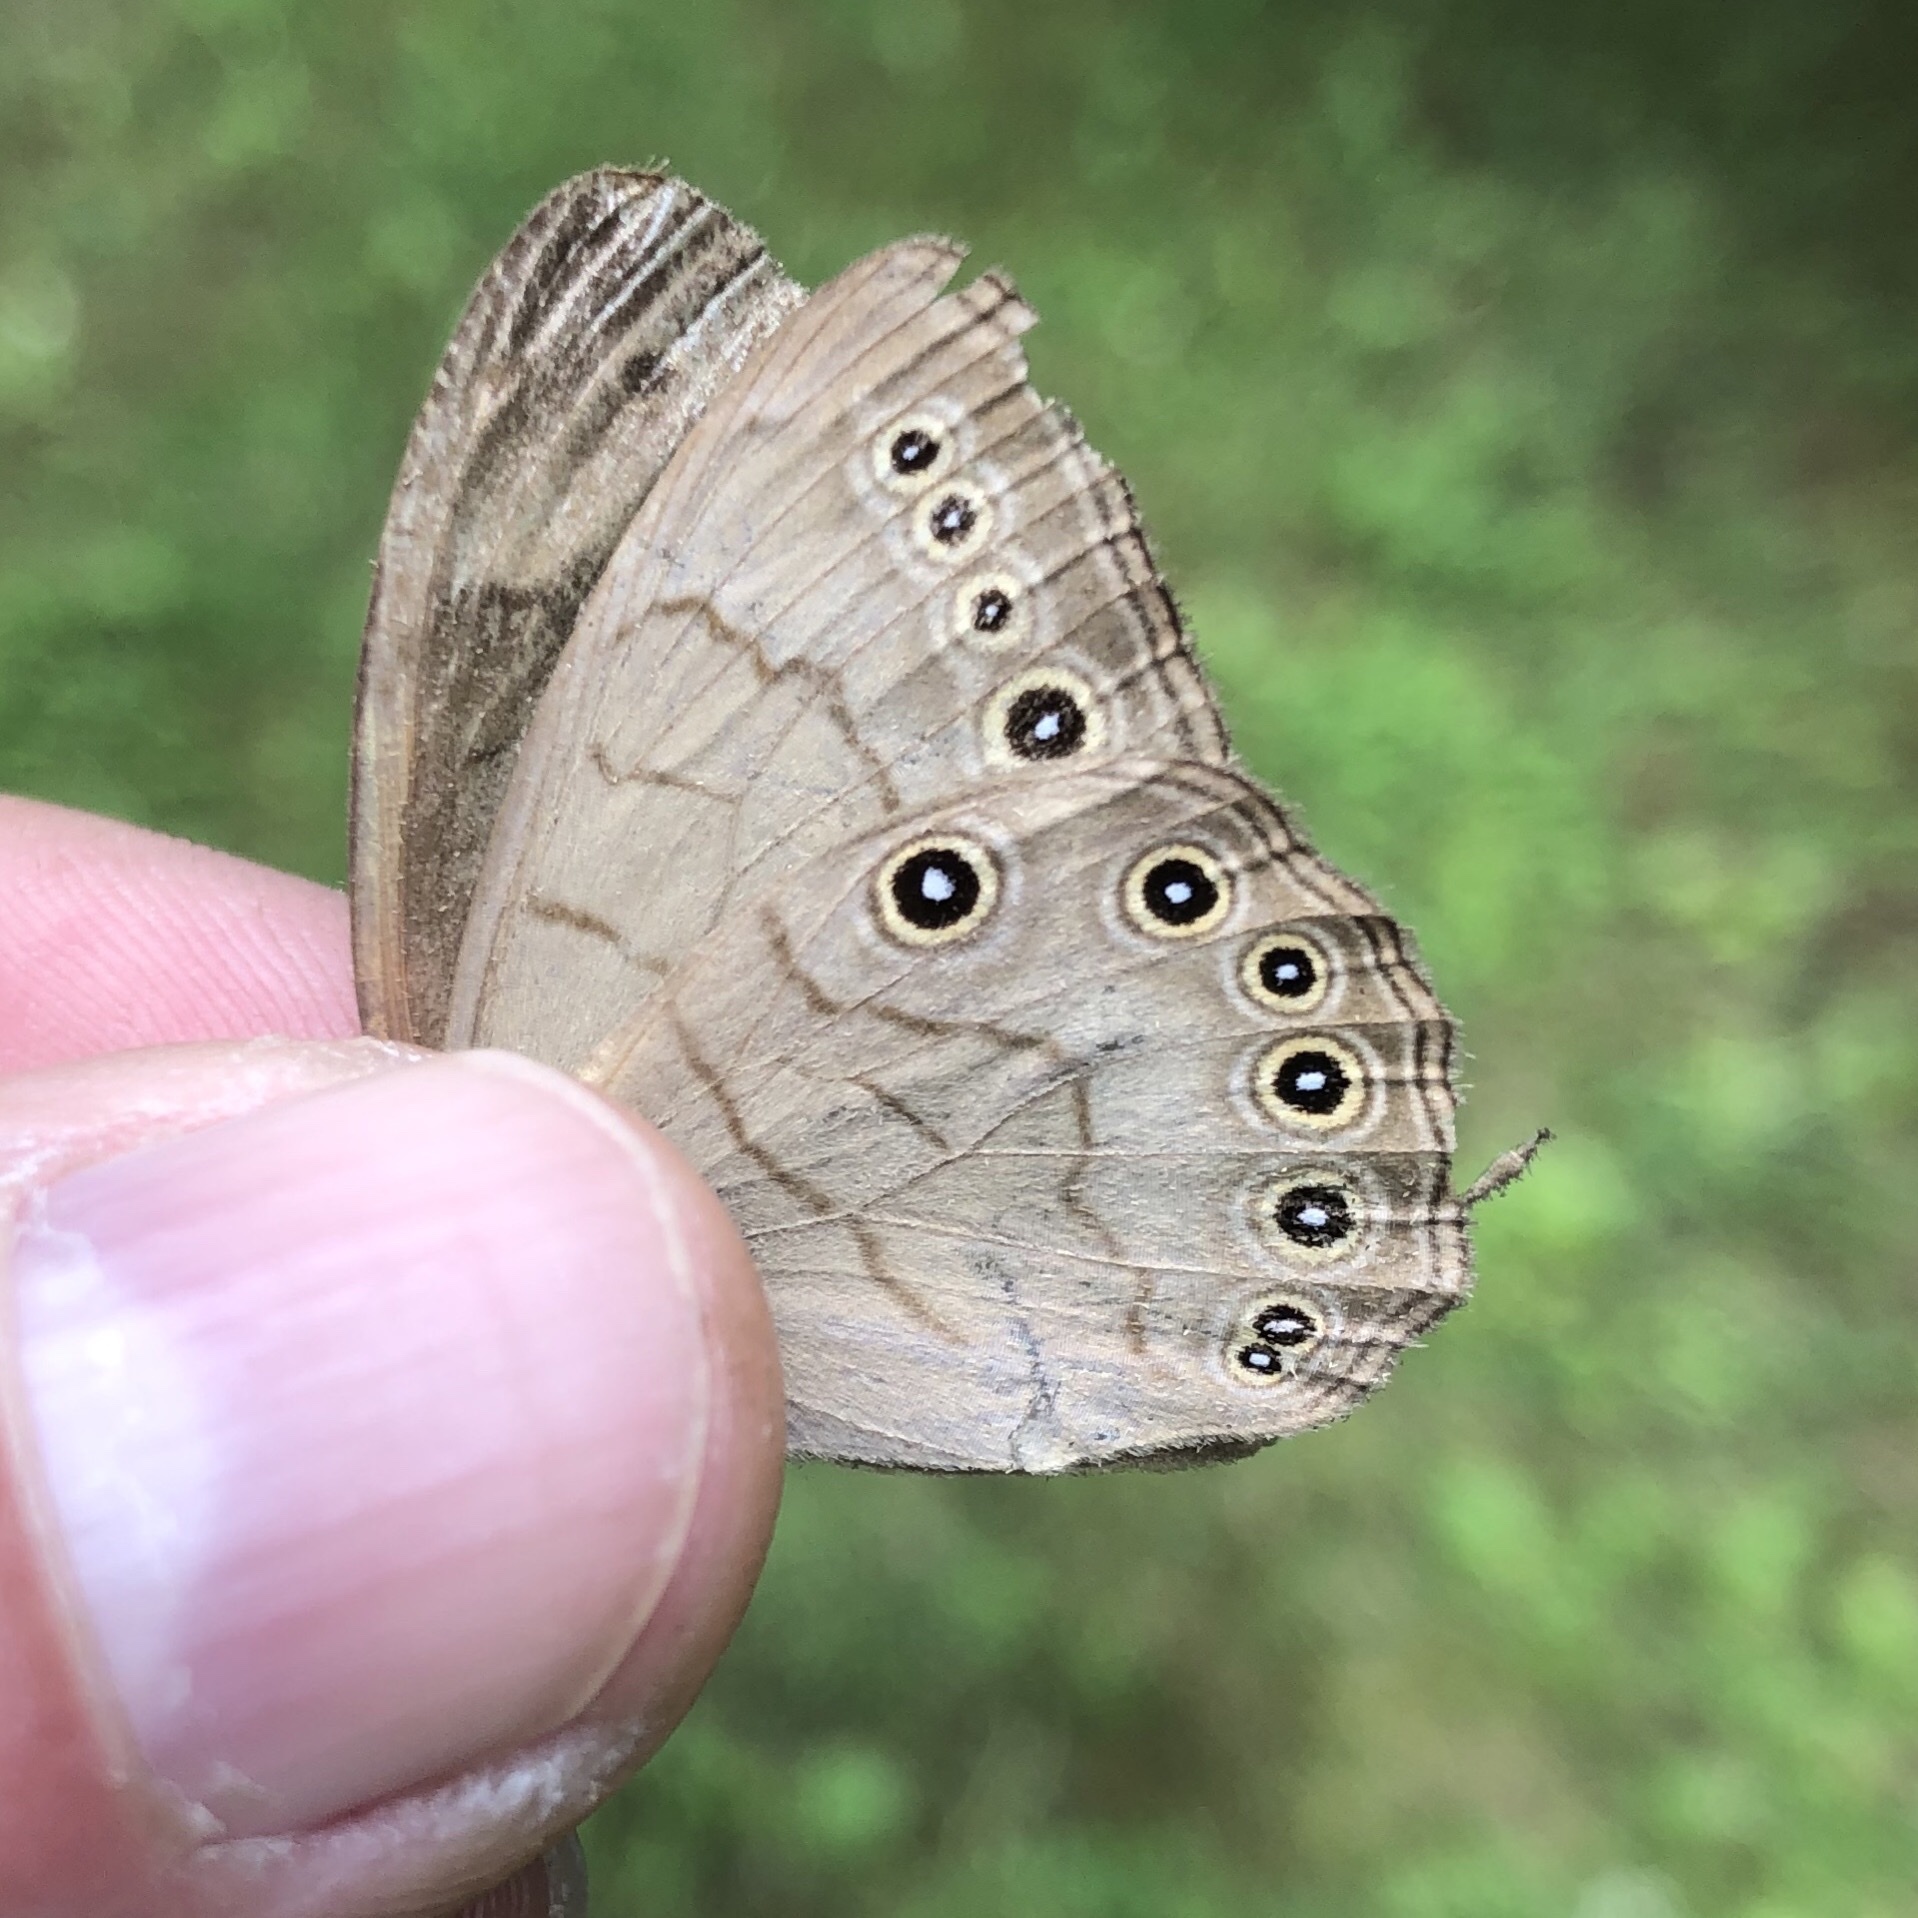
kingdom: Animalia
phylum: Arthropoda
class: Insecta
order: Lepidoptera
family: Nymphalidae
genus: Lethe
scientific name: Lethe eurydice
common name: Eyed brown
